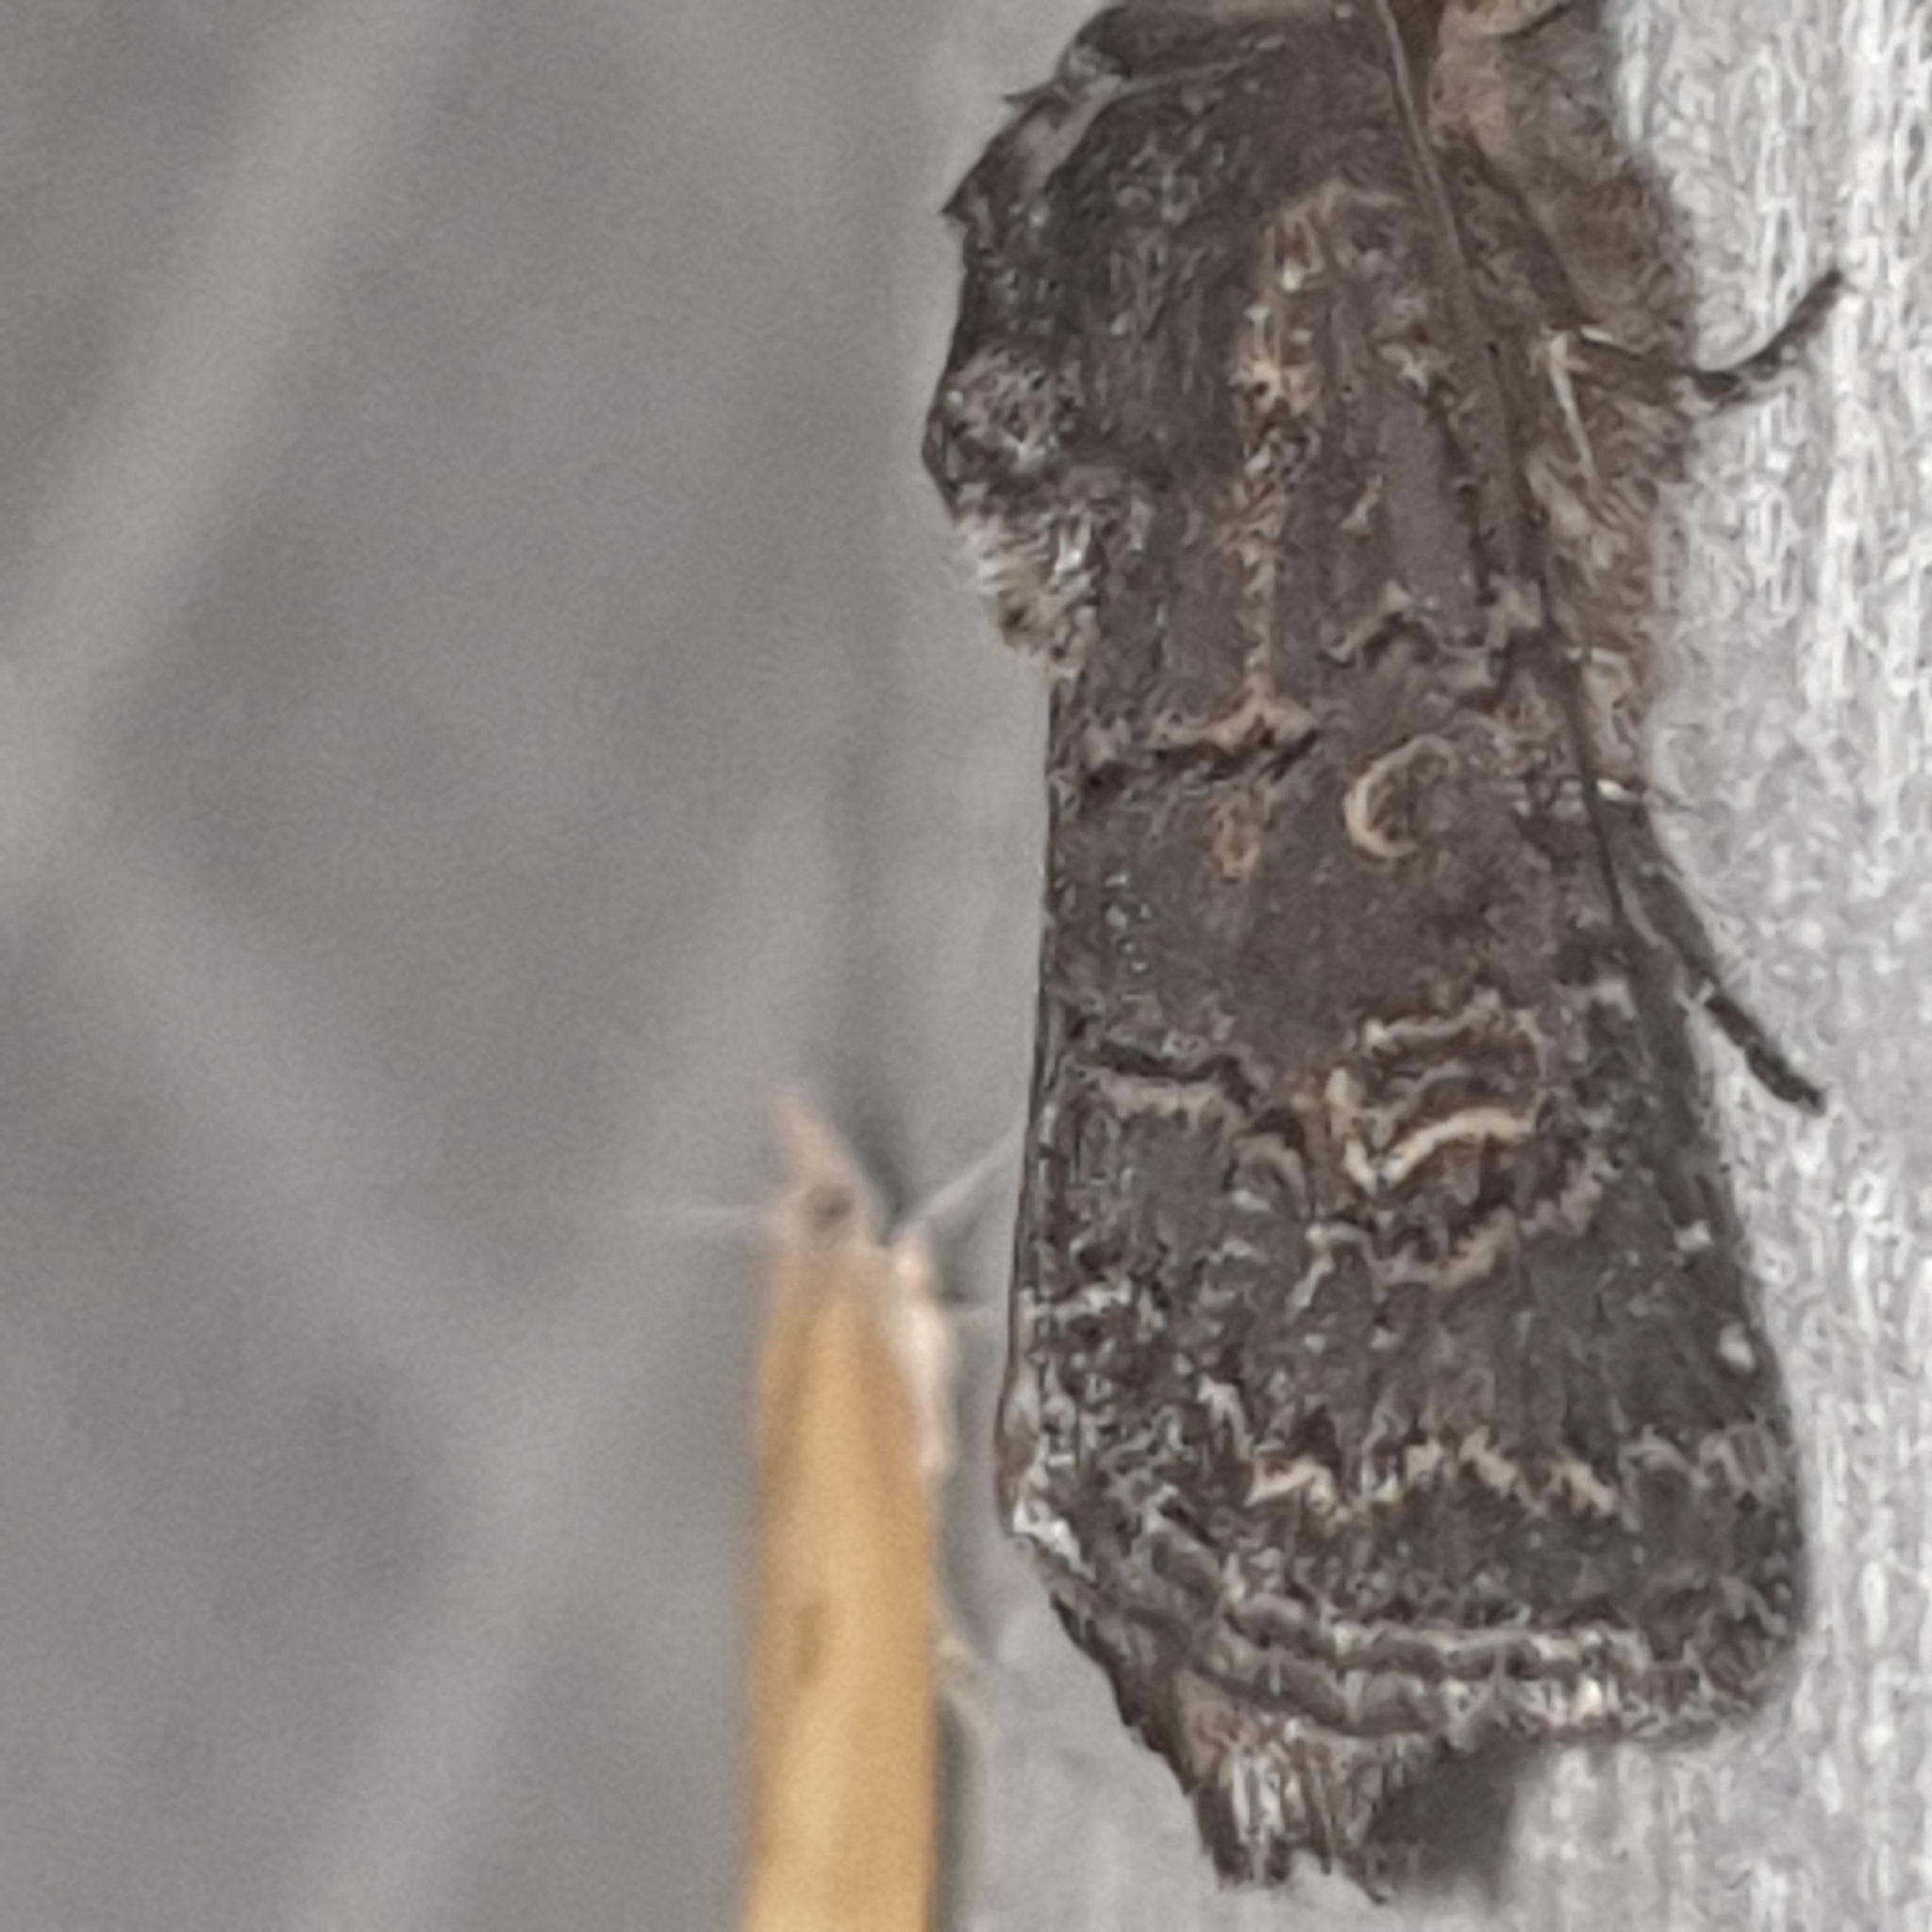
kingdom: Animalia
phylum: Arthropoda
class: Insecta
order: Lepidoptera
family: Noctuidae
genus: Tholera
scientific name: Tholera cespitis
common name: Hedge rustic
